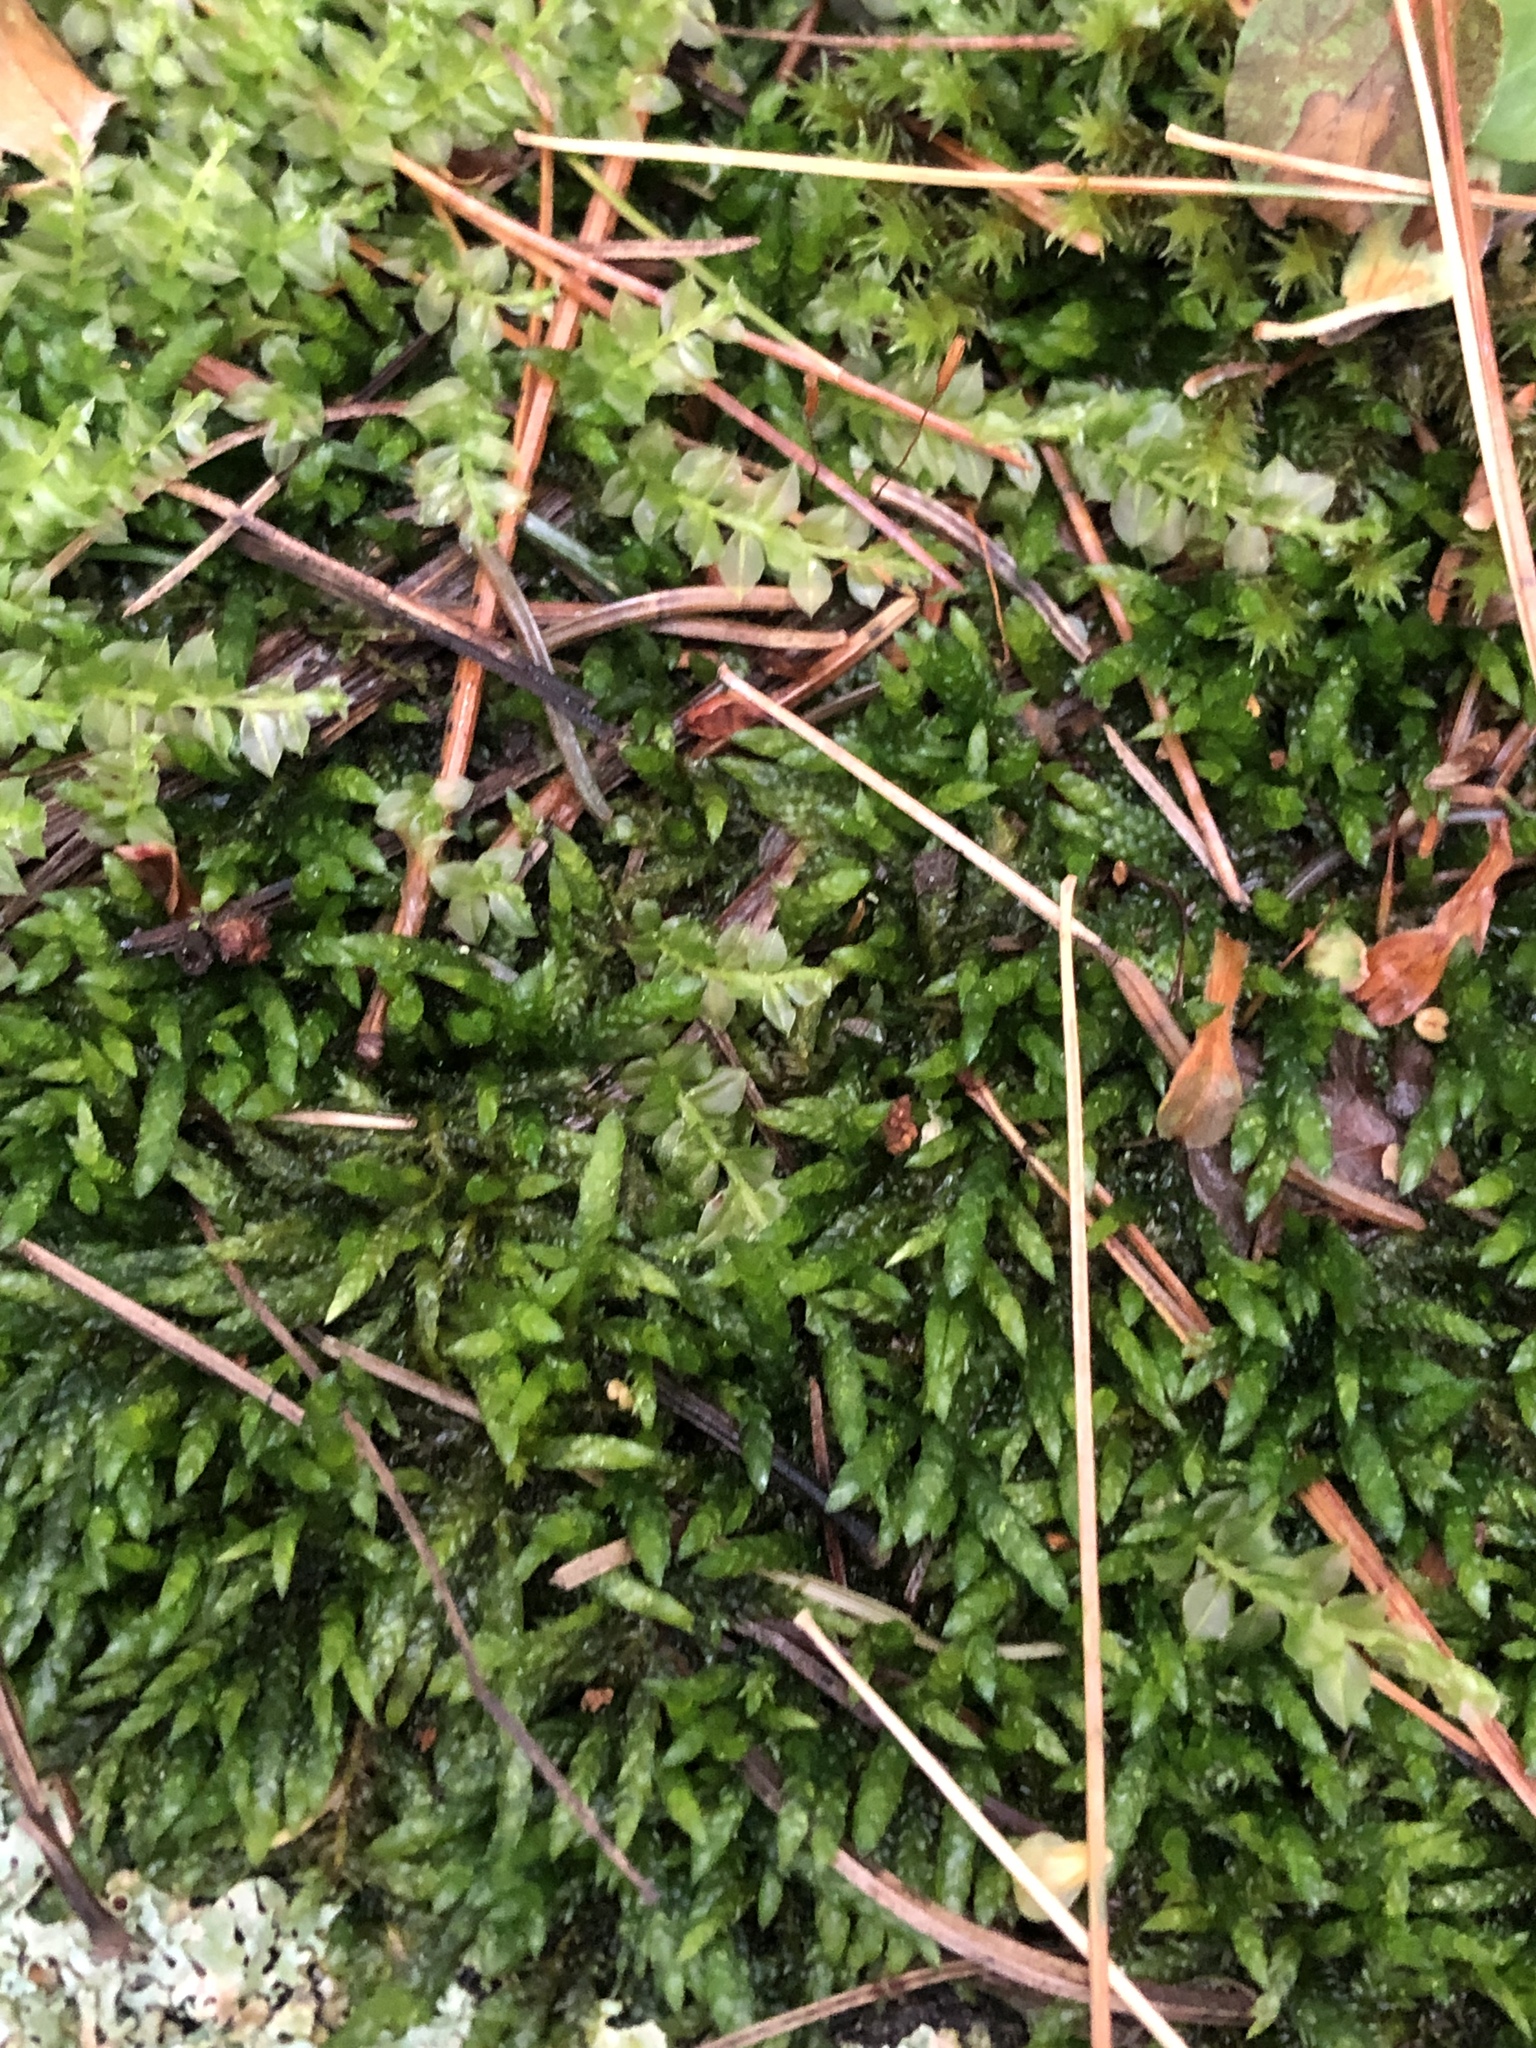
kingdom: Plantae
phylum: Bryophyta
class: Bryopsida
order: Hypnales
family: Entodontaceae
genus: Entodon
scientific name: Entodon seductrix
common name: Round-stemmed entodon moss
